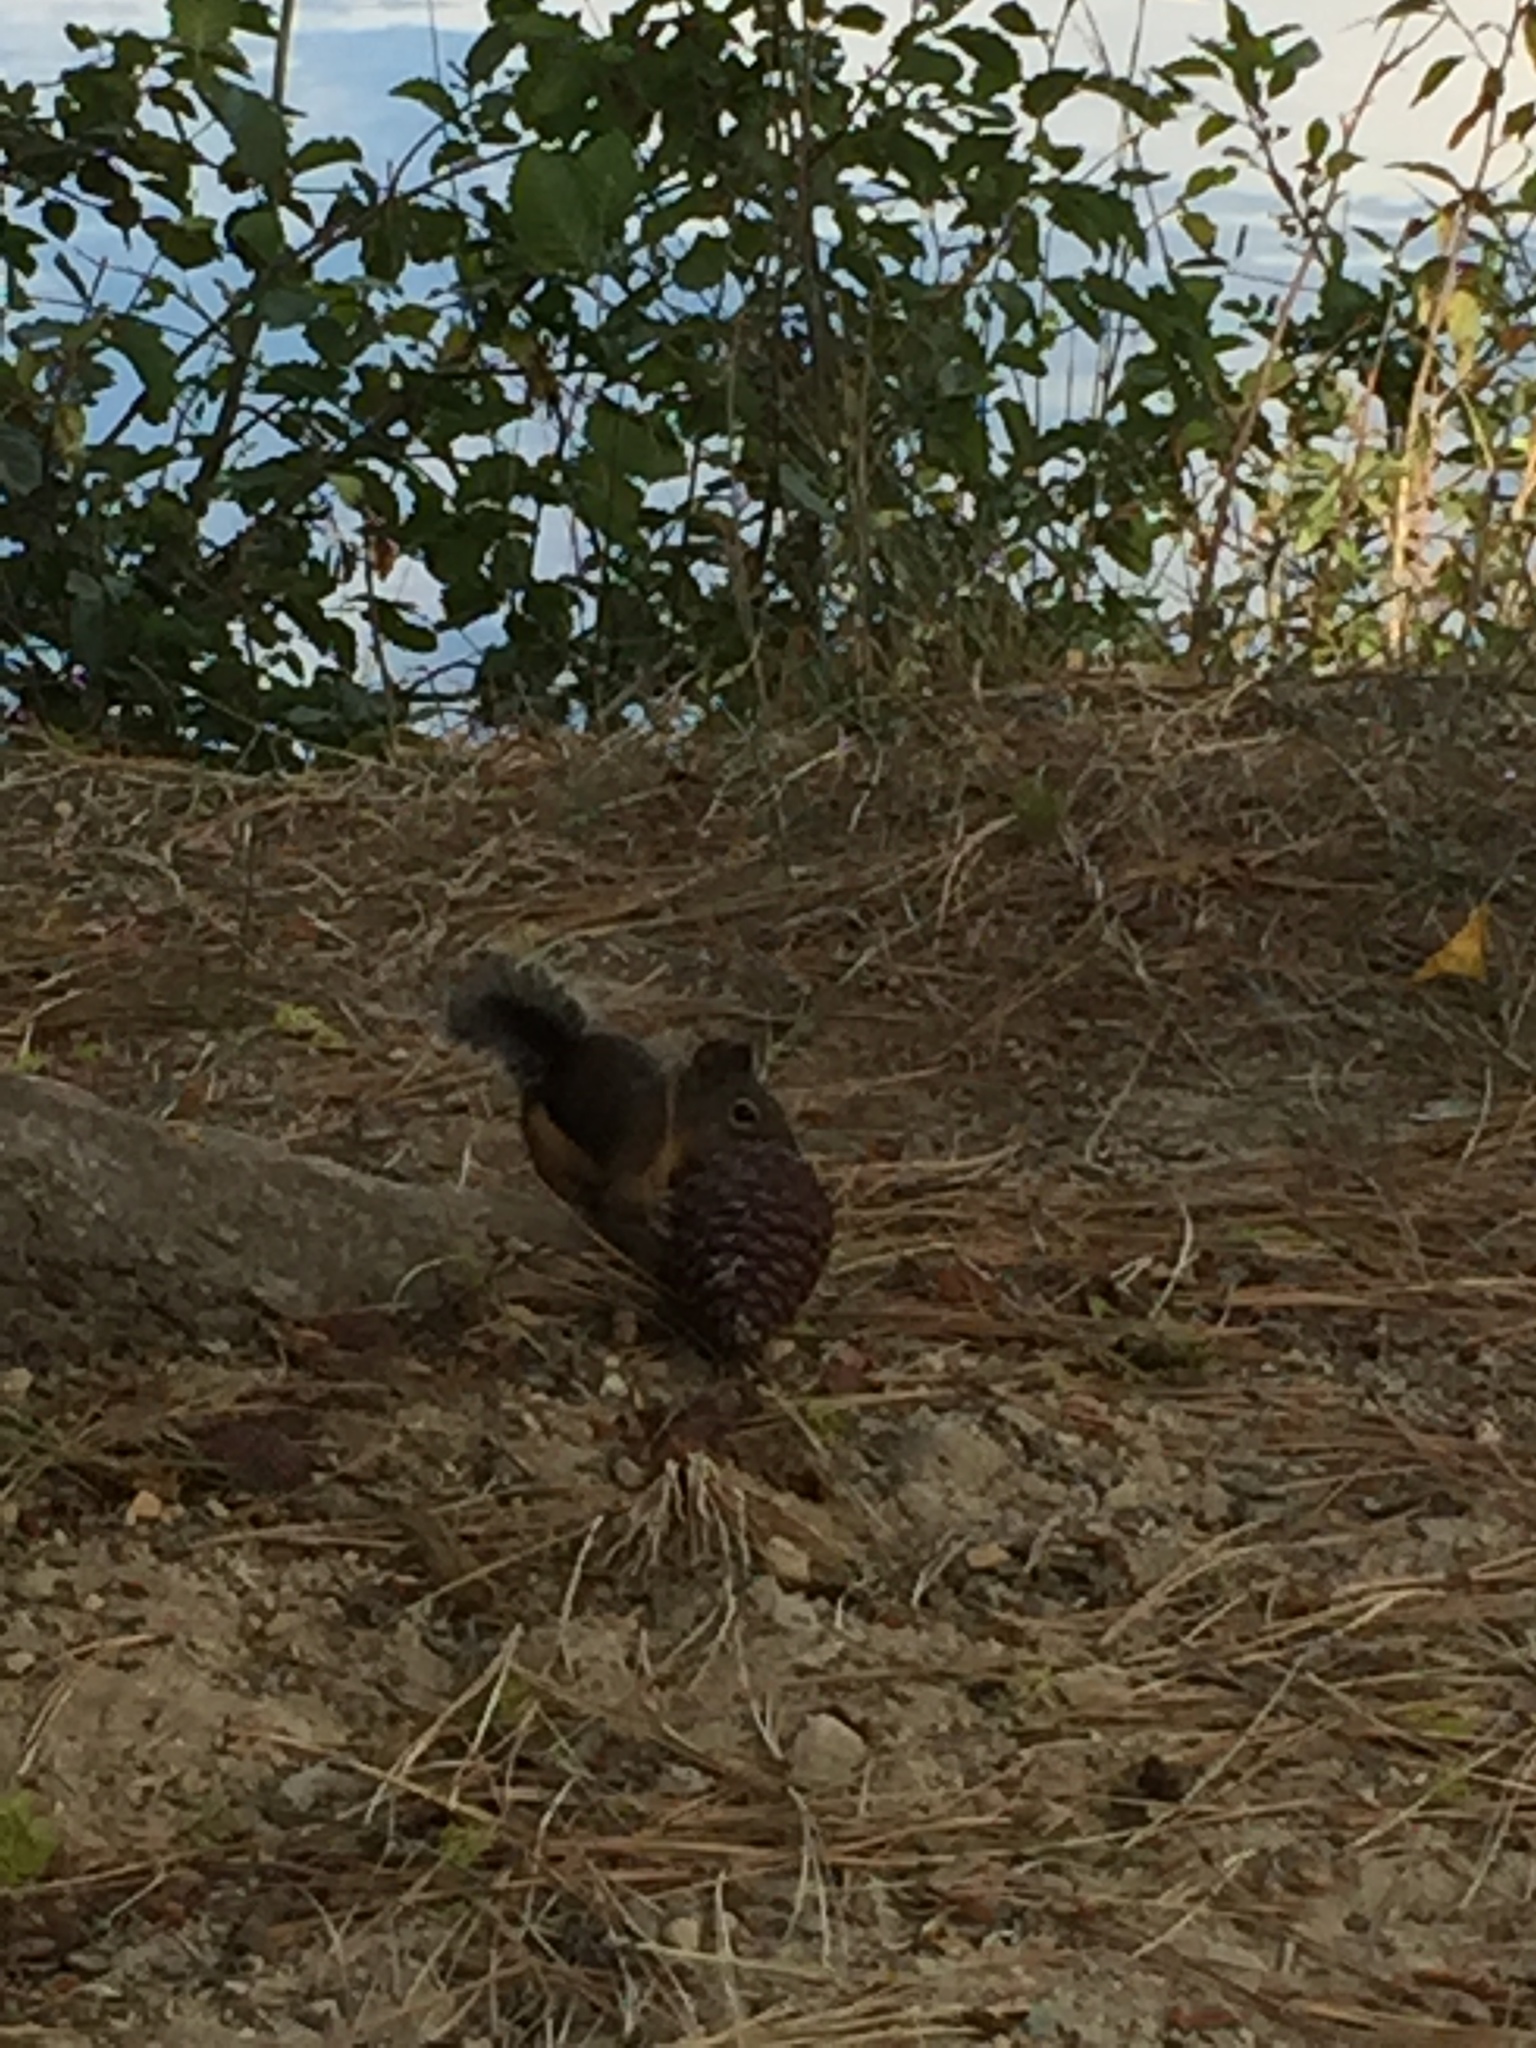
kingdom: Animalia
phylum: Chordata
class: Mammalia
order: Rodentia
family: Sciuridae
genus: Tamiasciurus
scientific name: Tamiasciurus douglasii
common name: Douglas's squirrel
